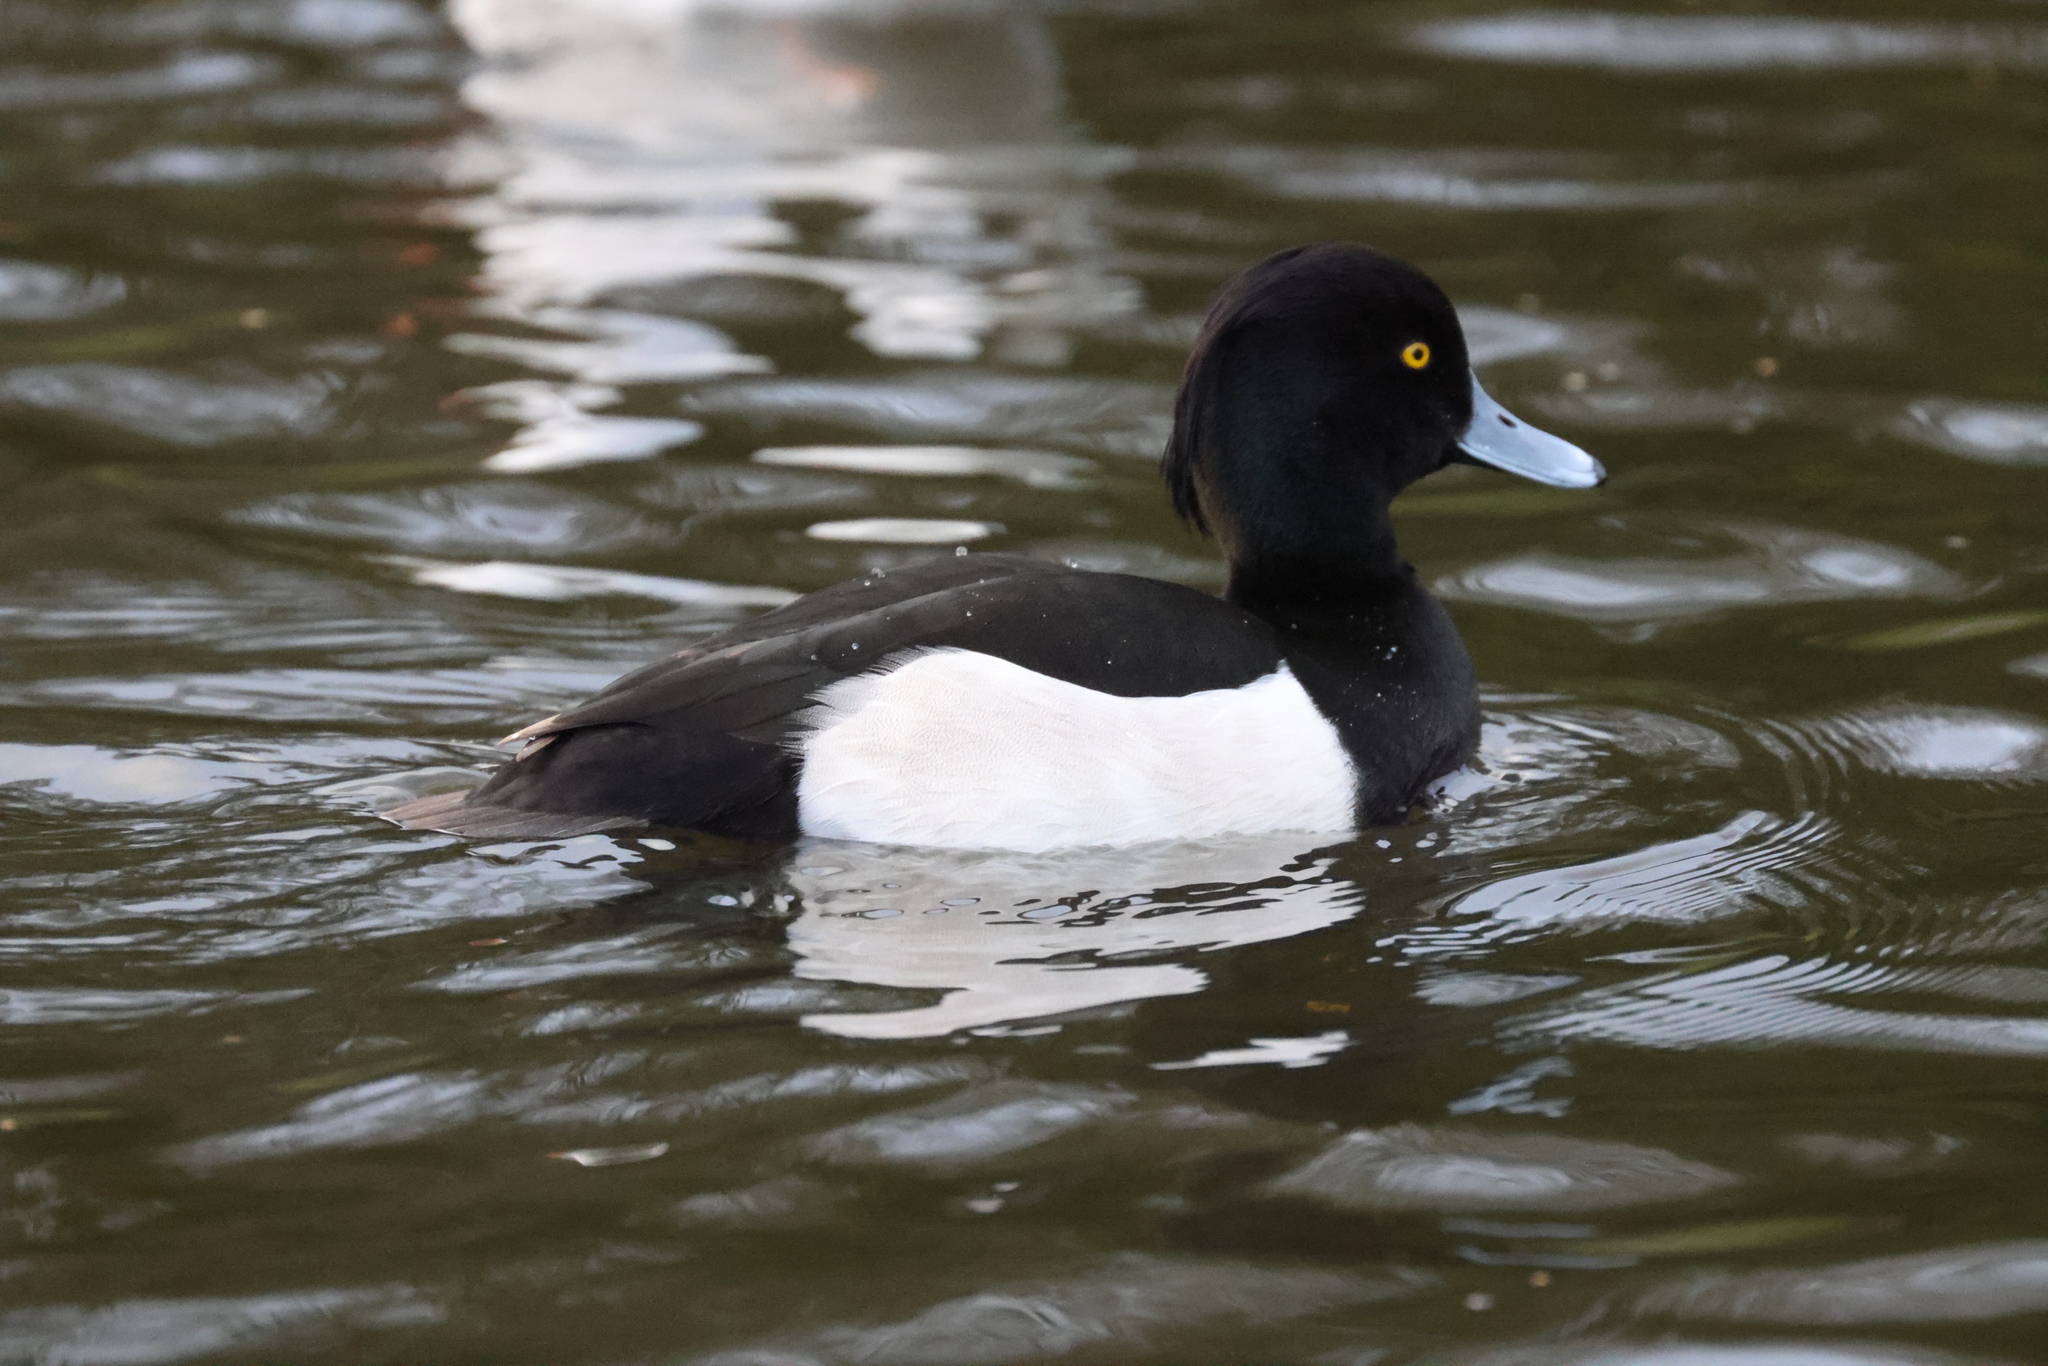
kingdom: Animalia
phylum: Chordata
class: Aves
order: Anseriformes
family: Anatidae
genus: Aythya
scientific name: Aythya fuligula
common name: Tufted duck
